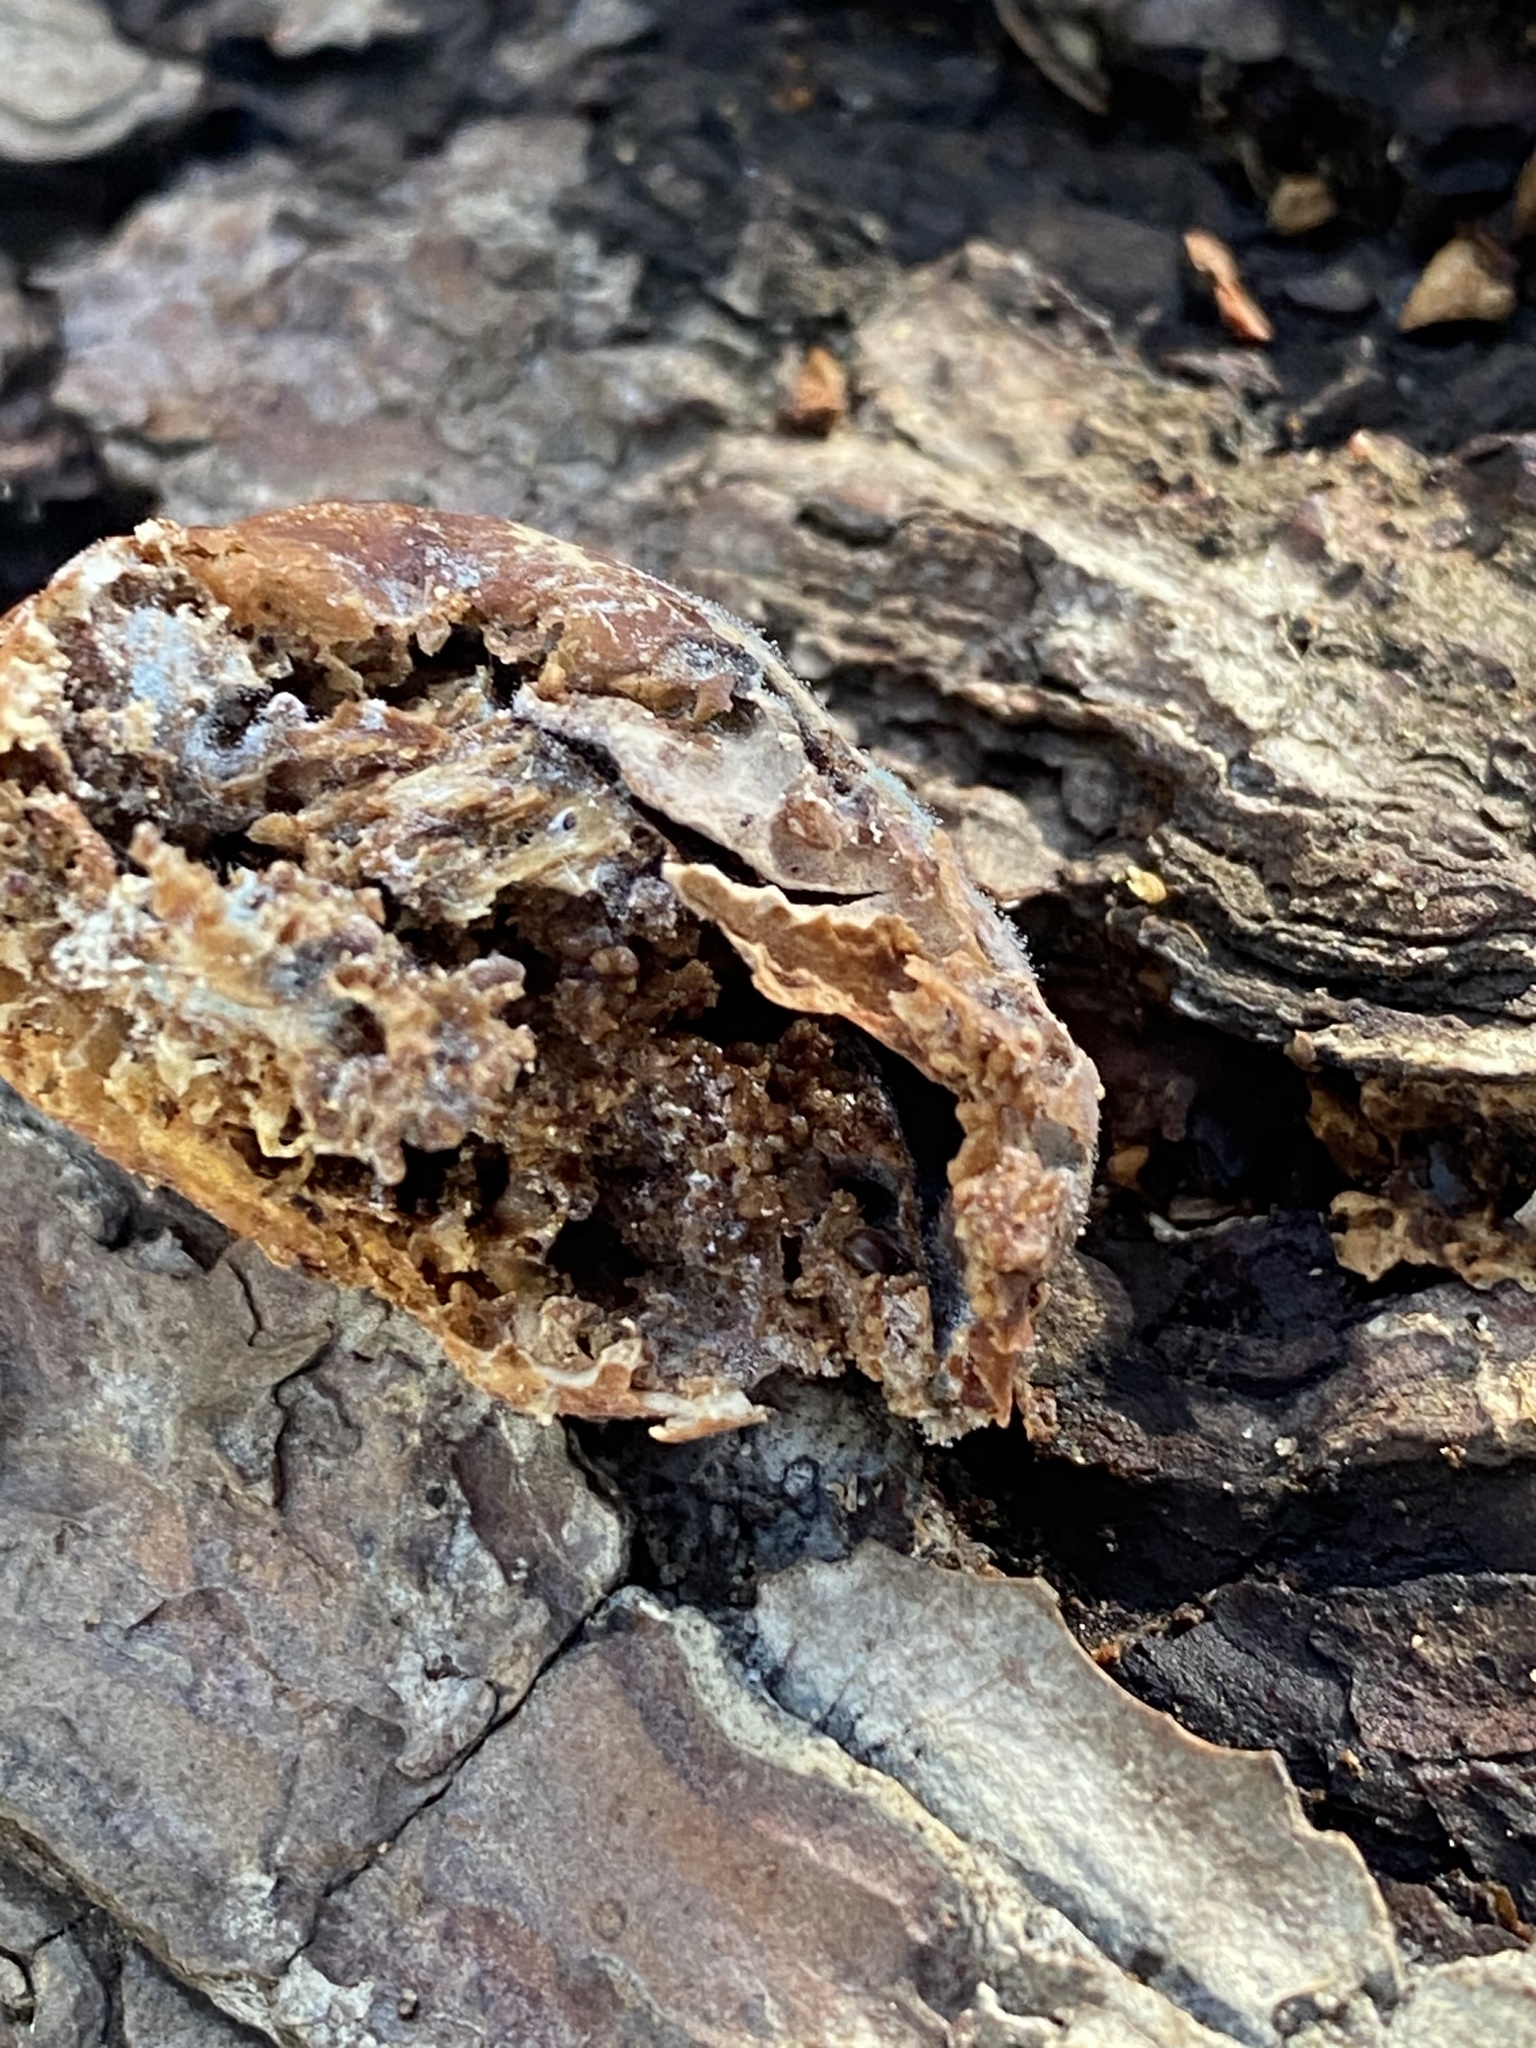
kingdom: Fungi
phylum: Basidiomycota
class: Agaricomycetes
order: Polyporales
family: Polyporaceae
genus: Cryptoporus
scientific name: Cryptoporus volvatus
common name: Veiled polypore
